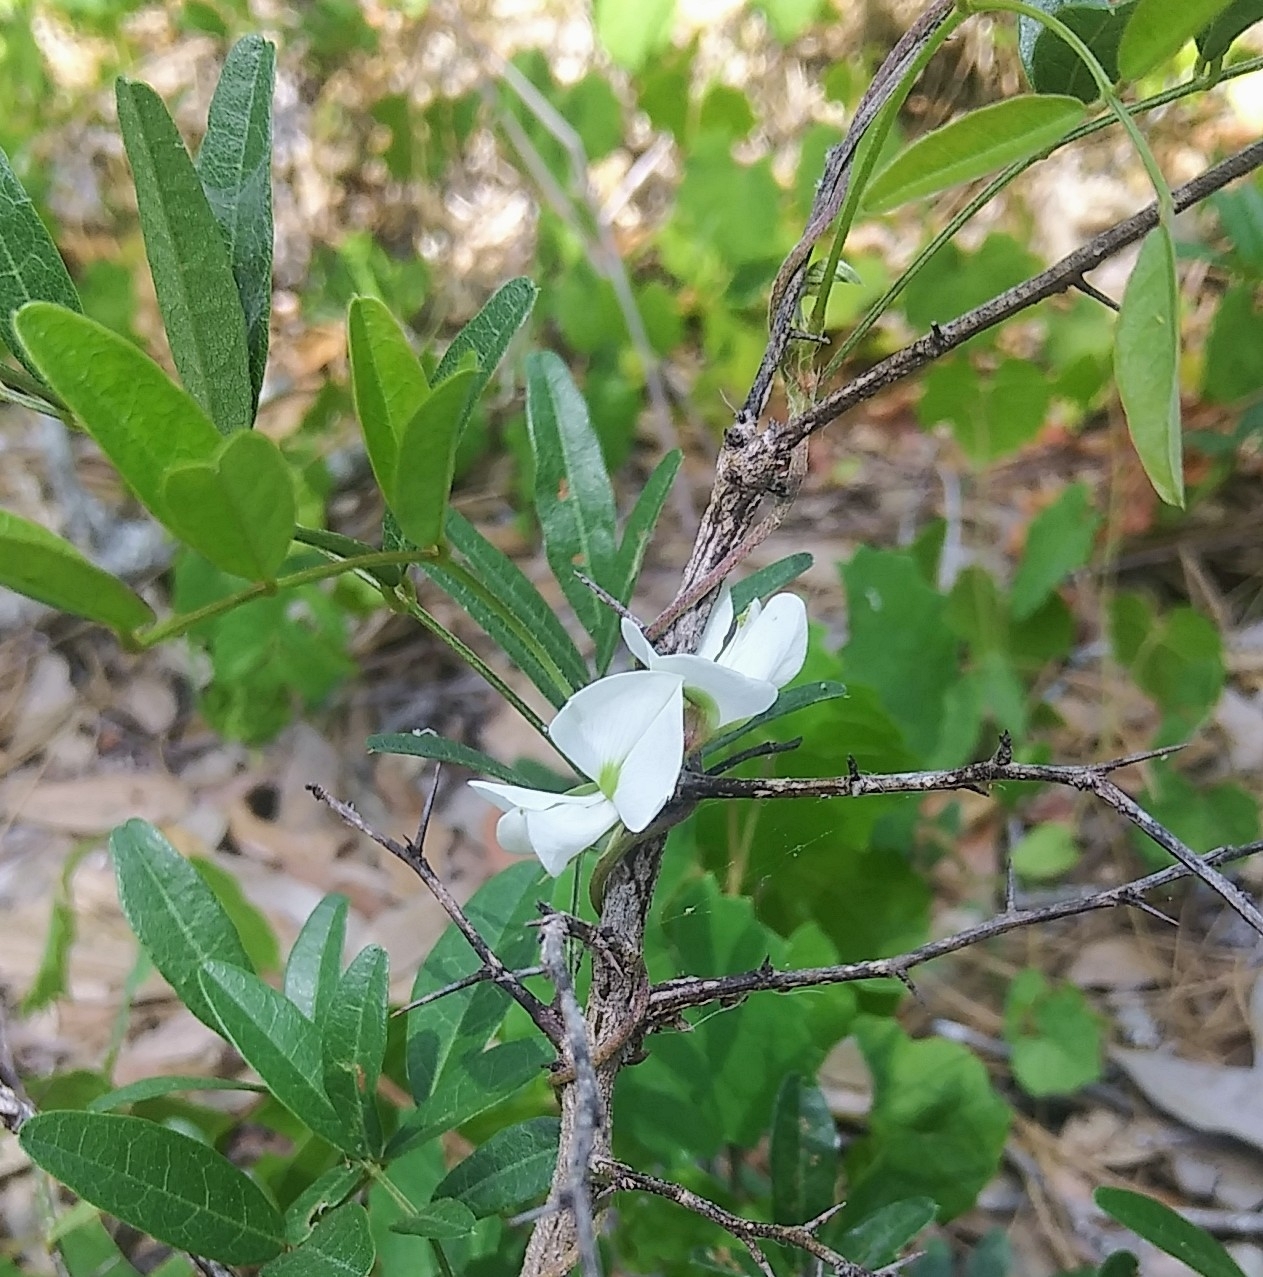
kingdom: Plantae
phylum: Tracheophyta
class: Magnoliopsida
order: Fabales
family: Fabaceae
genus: Galactia
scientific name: Galactia elliottii
